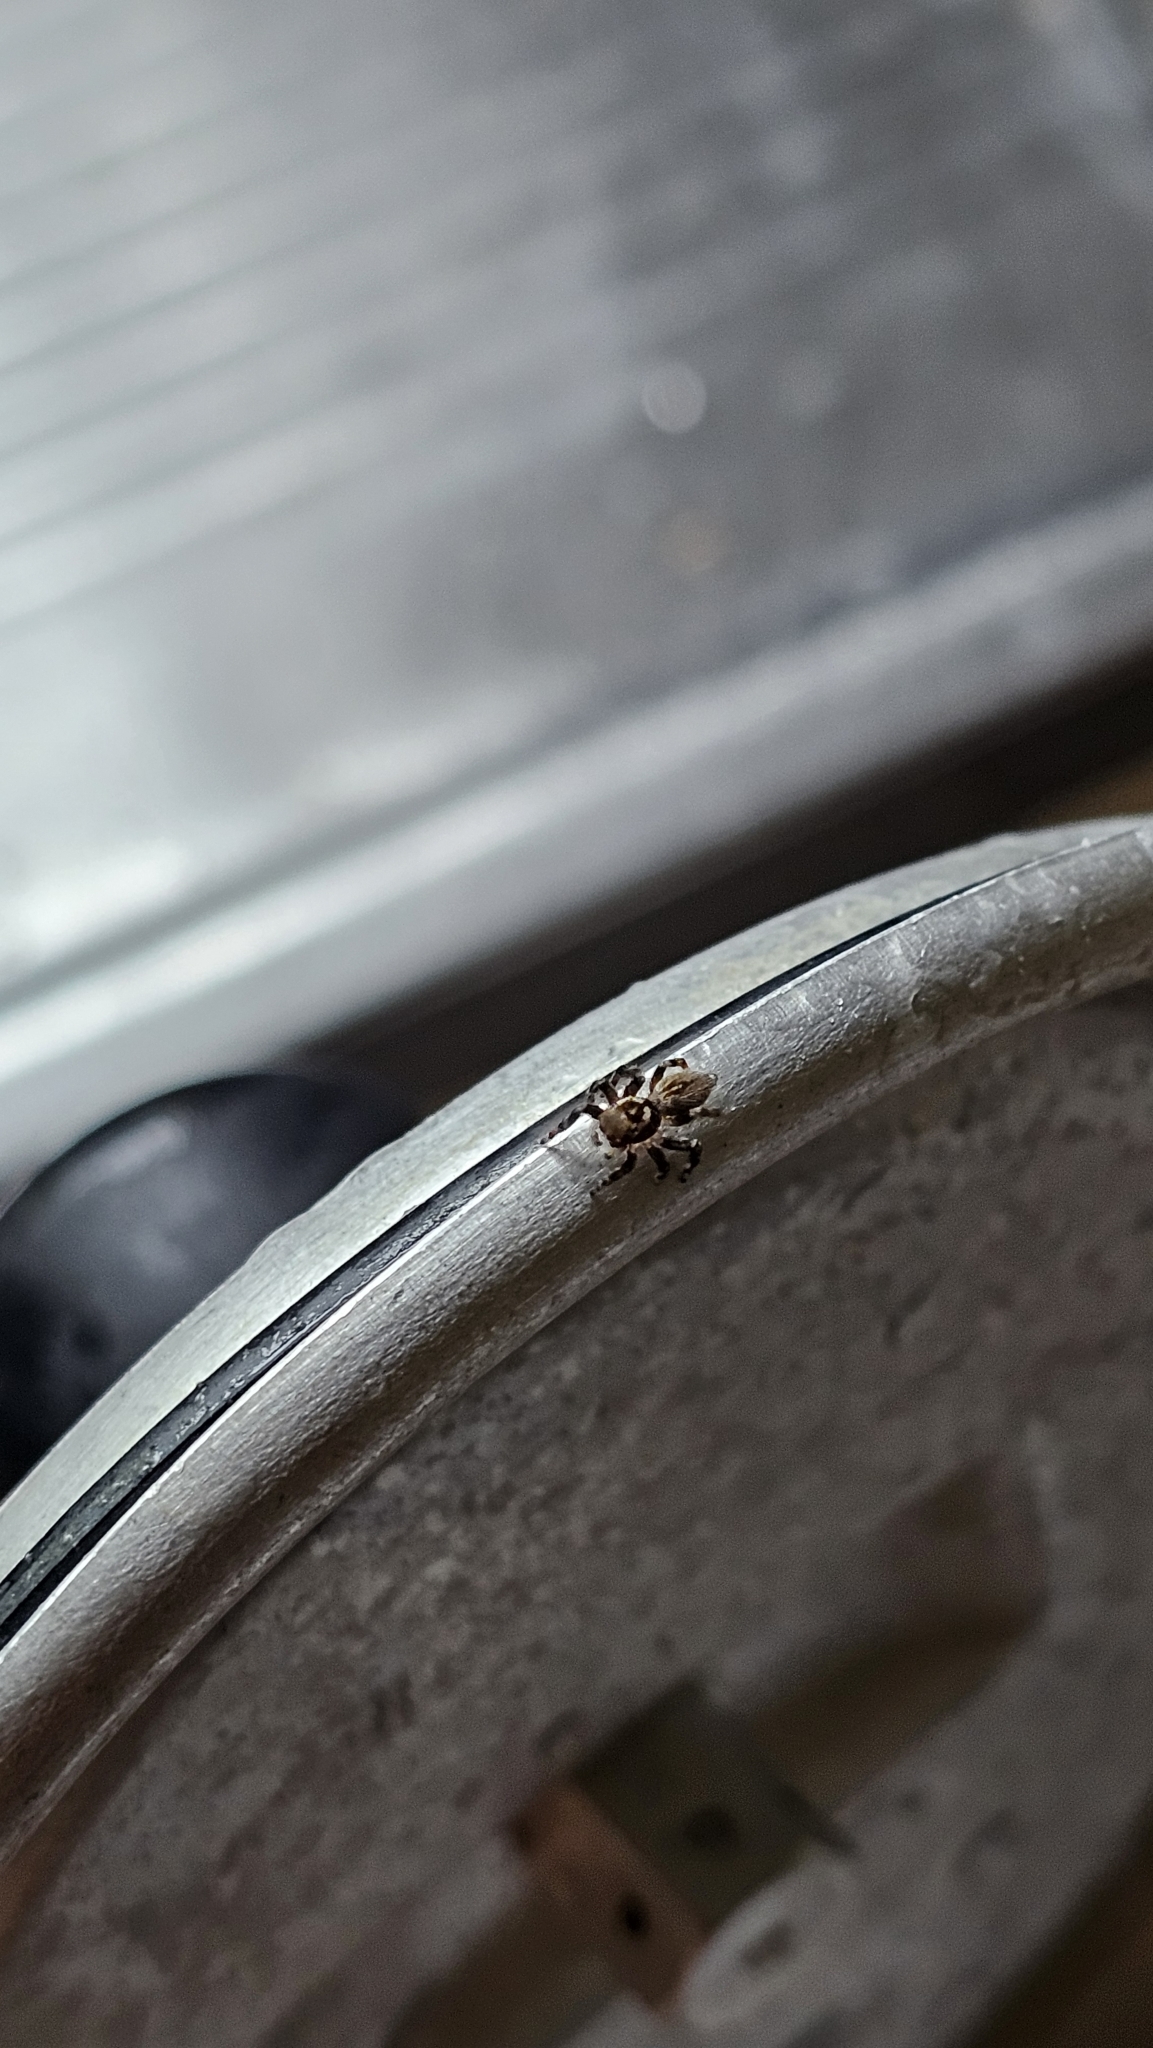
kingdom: Animalia
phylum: Arthropoda
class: Arachnida
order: Araneae
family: Salticidae
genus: Maratus
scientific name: Maratus griseus
